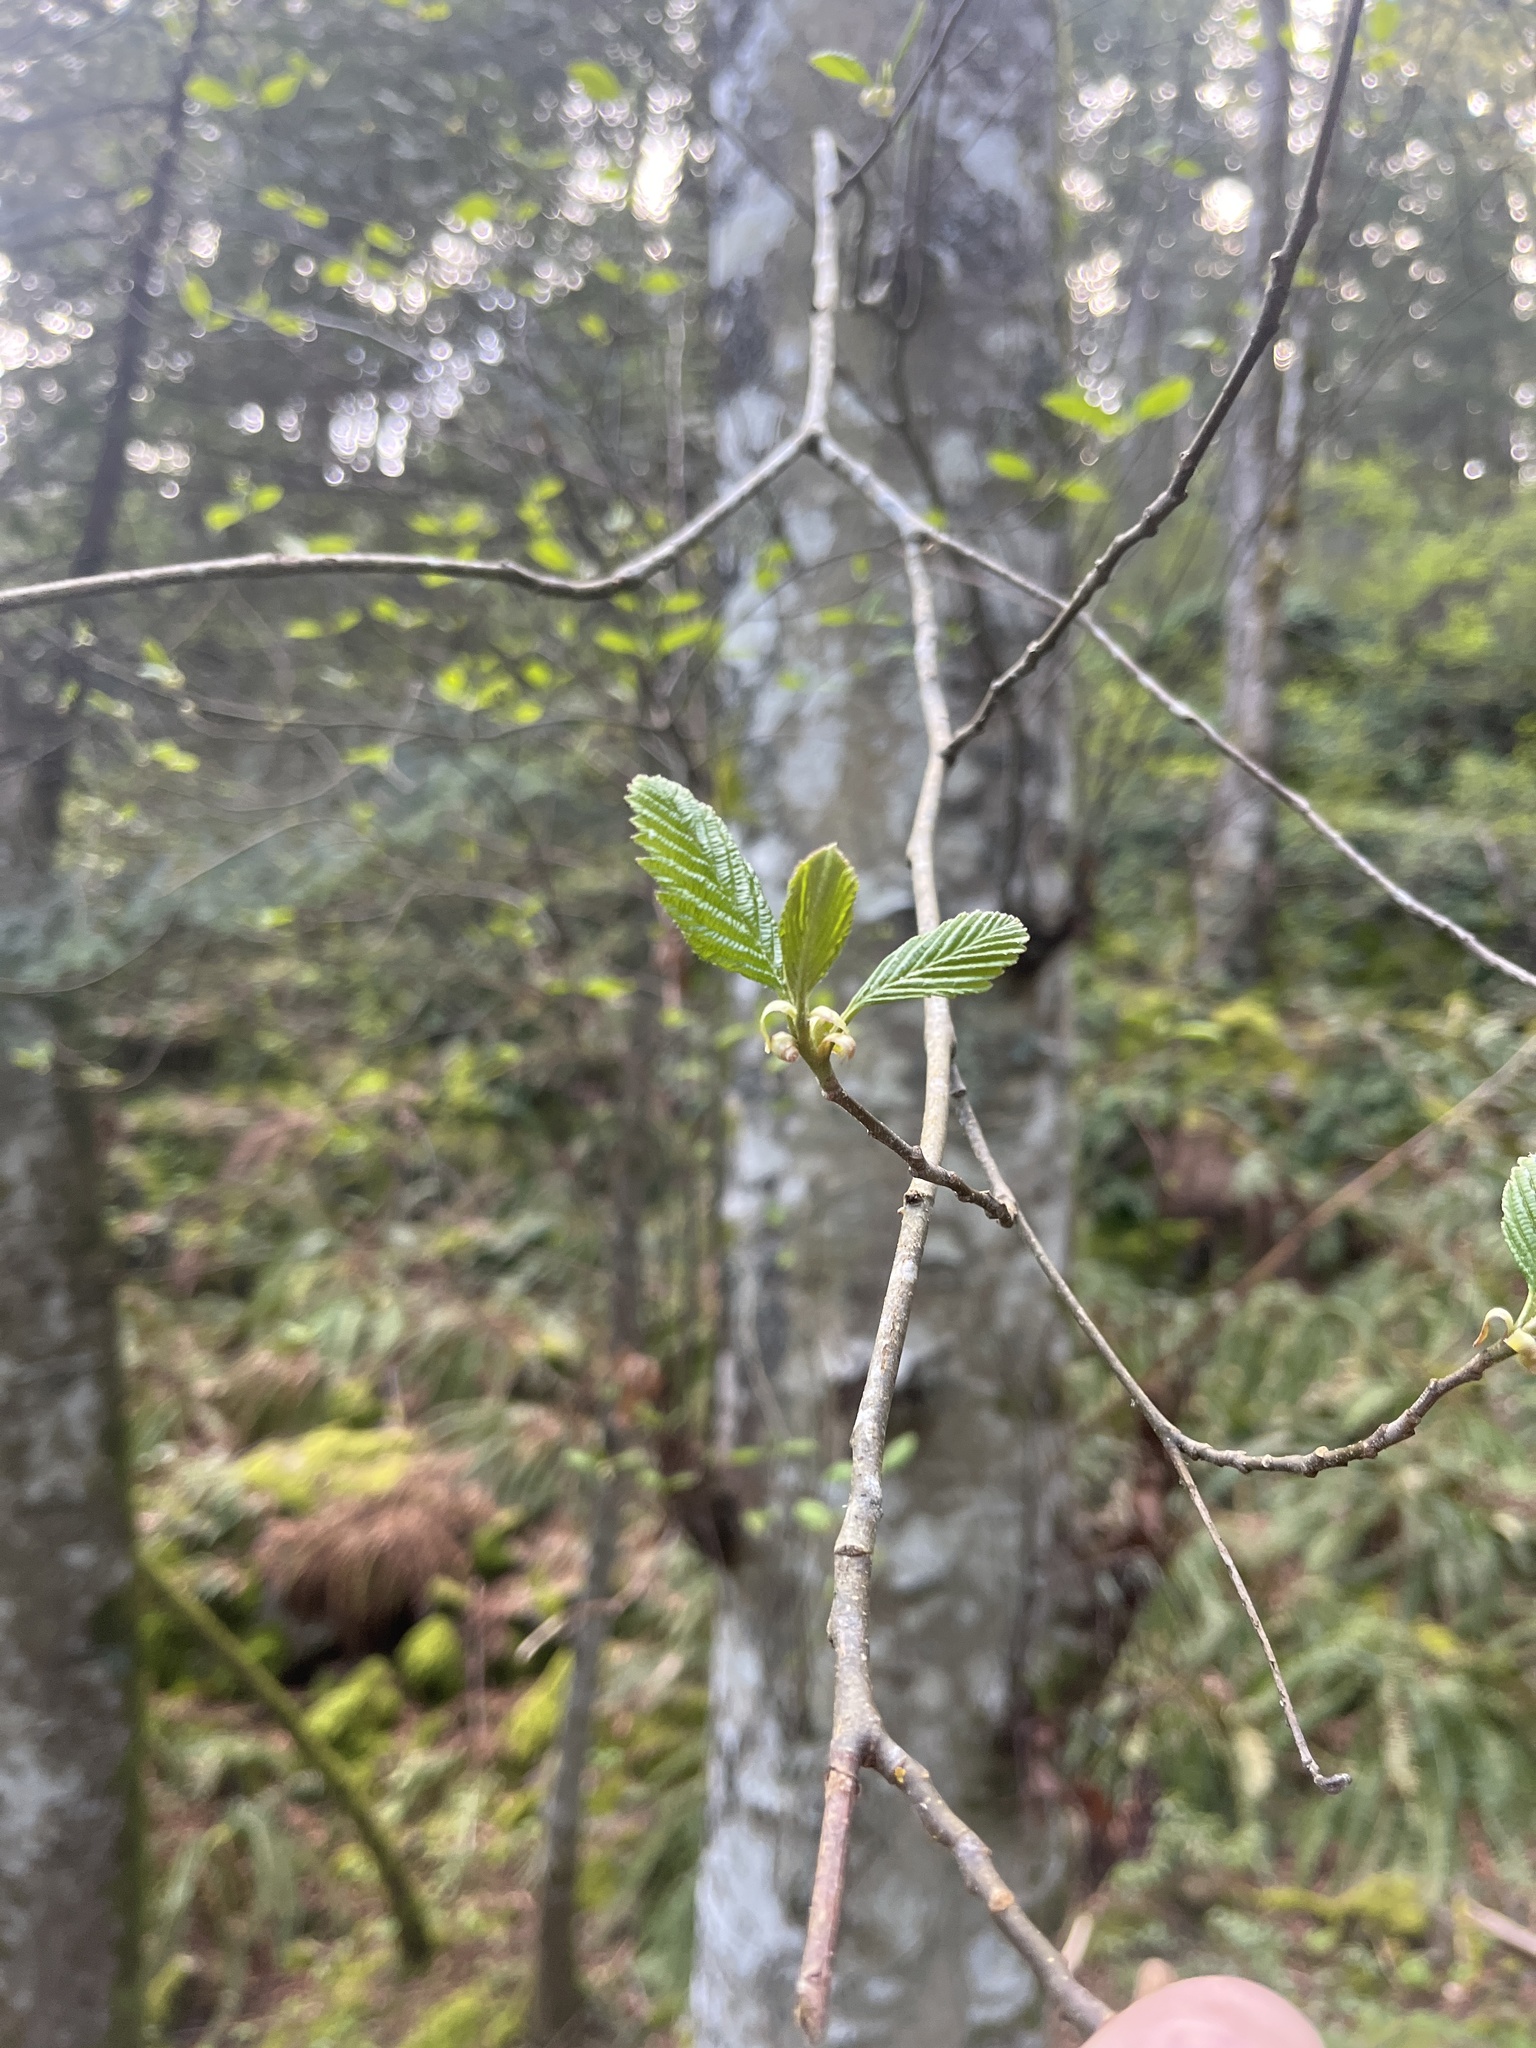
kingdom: Plantae
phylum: Tracheophyta
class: Magnoliopsida
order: Fagales
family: Betulaceae
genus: Alnus
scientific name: Alnus rubra
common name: Red alder
